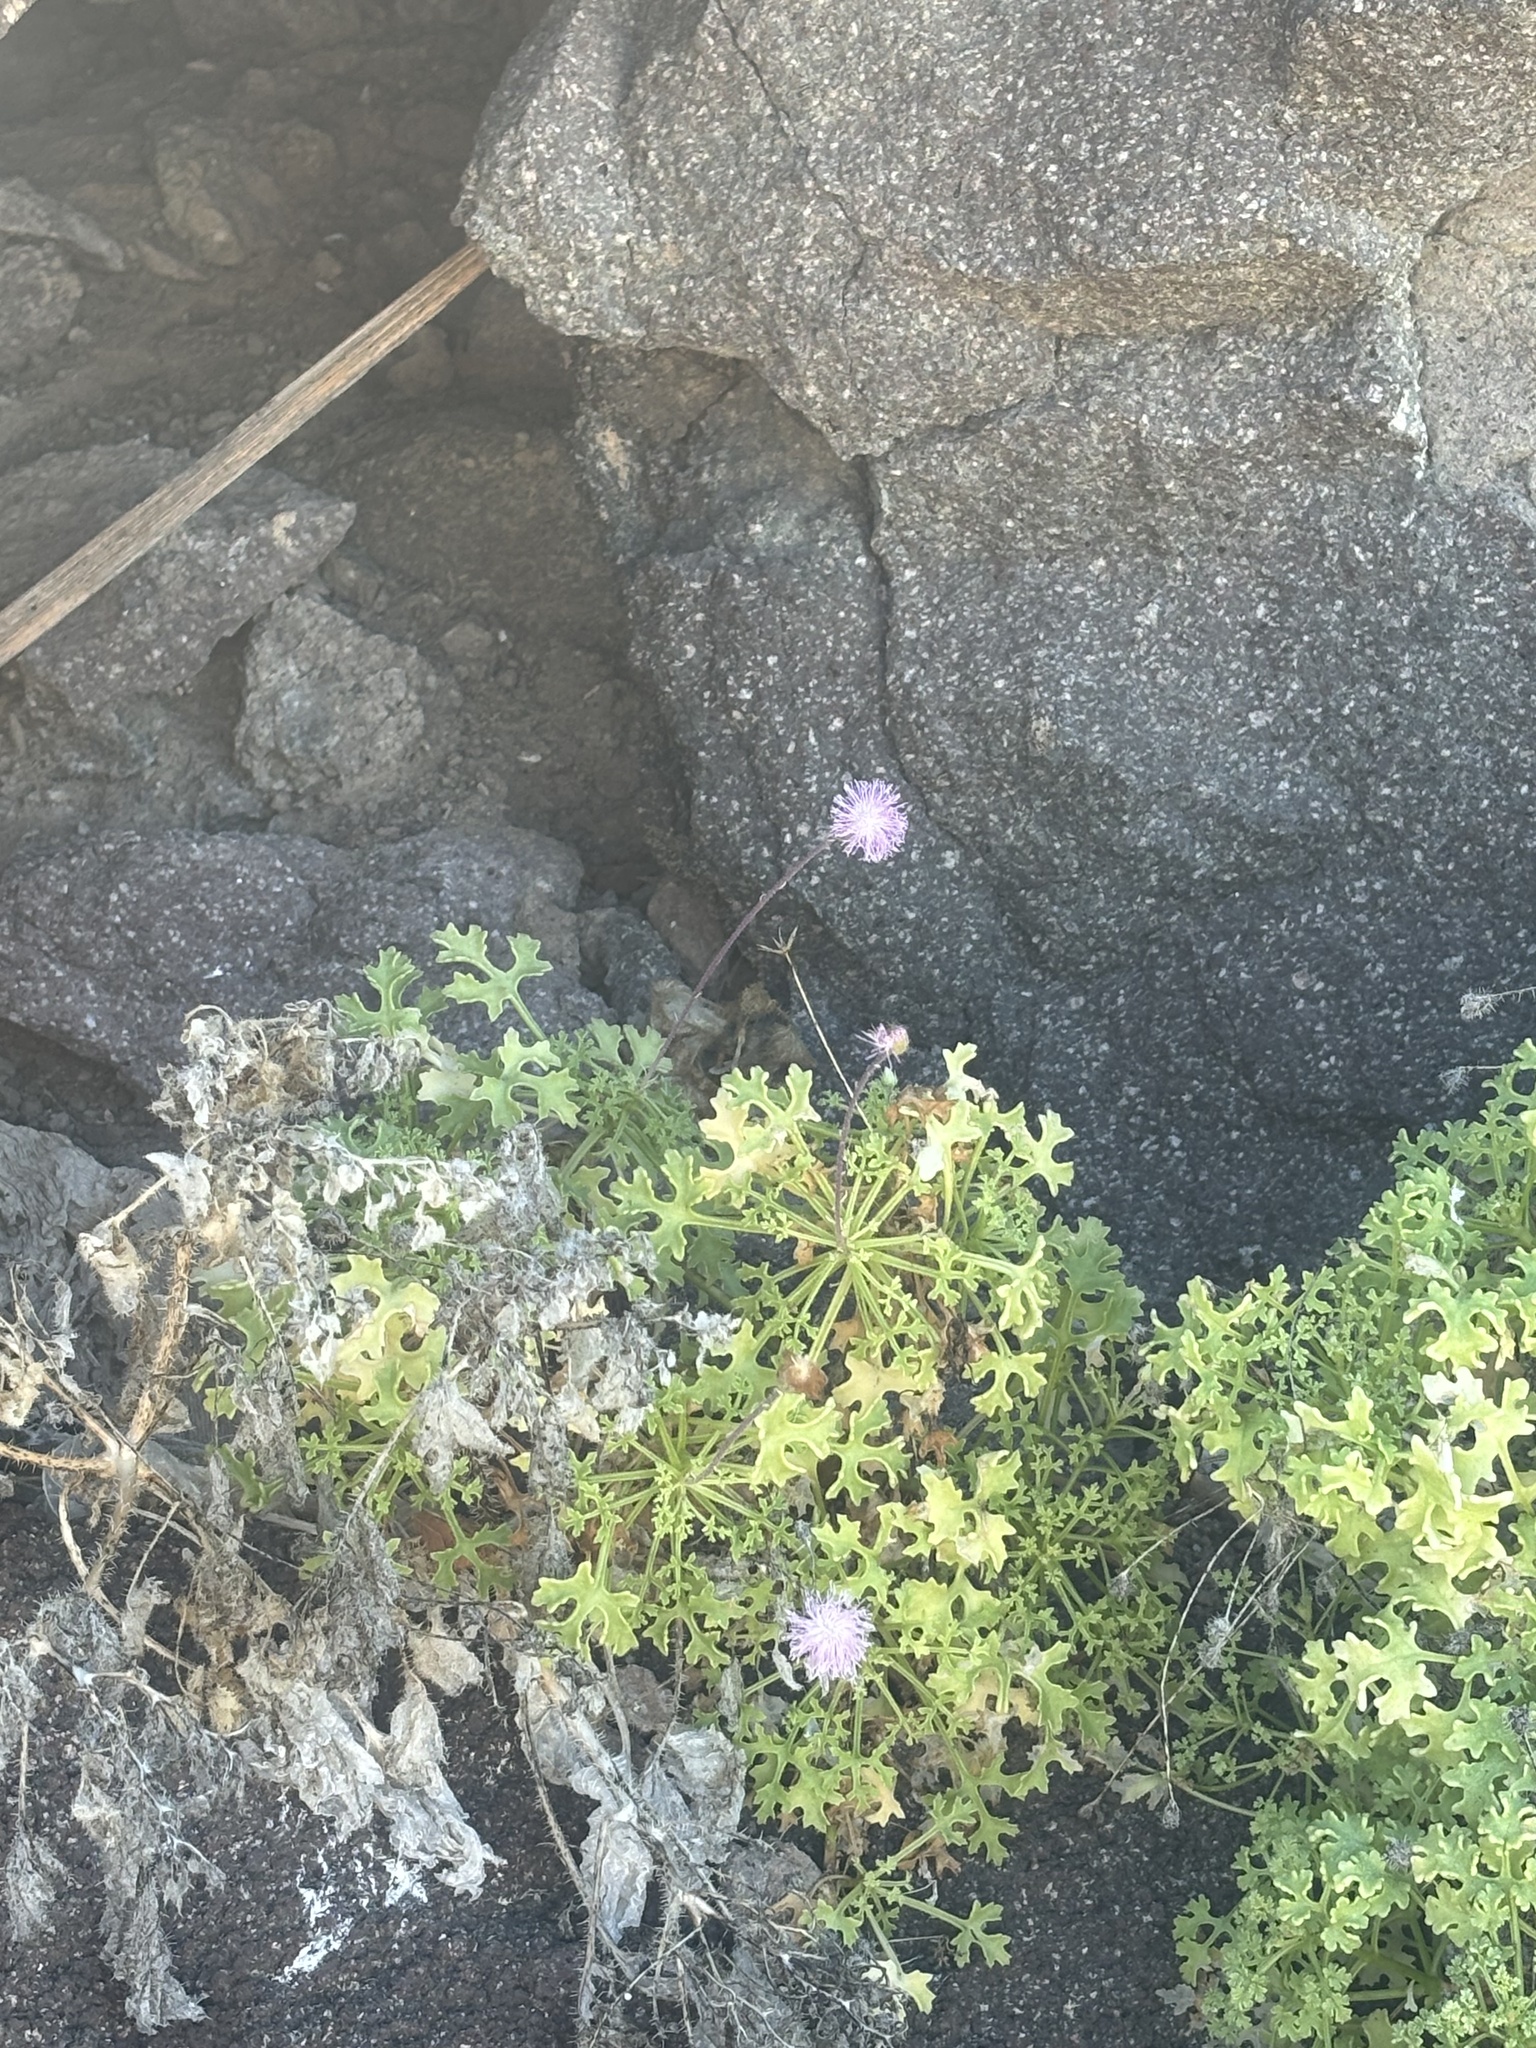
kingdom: Plantae
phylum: Tracheophyta
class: Magnoliopsida
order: Asterales
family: Asteraceae
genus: Hofmeisteria
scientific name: Hofmeisteria fasciculata
